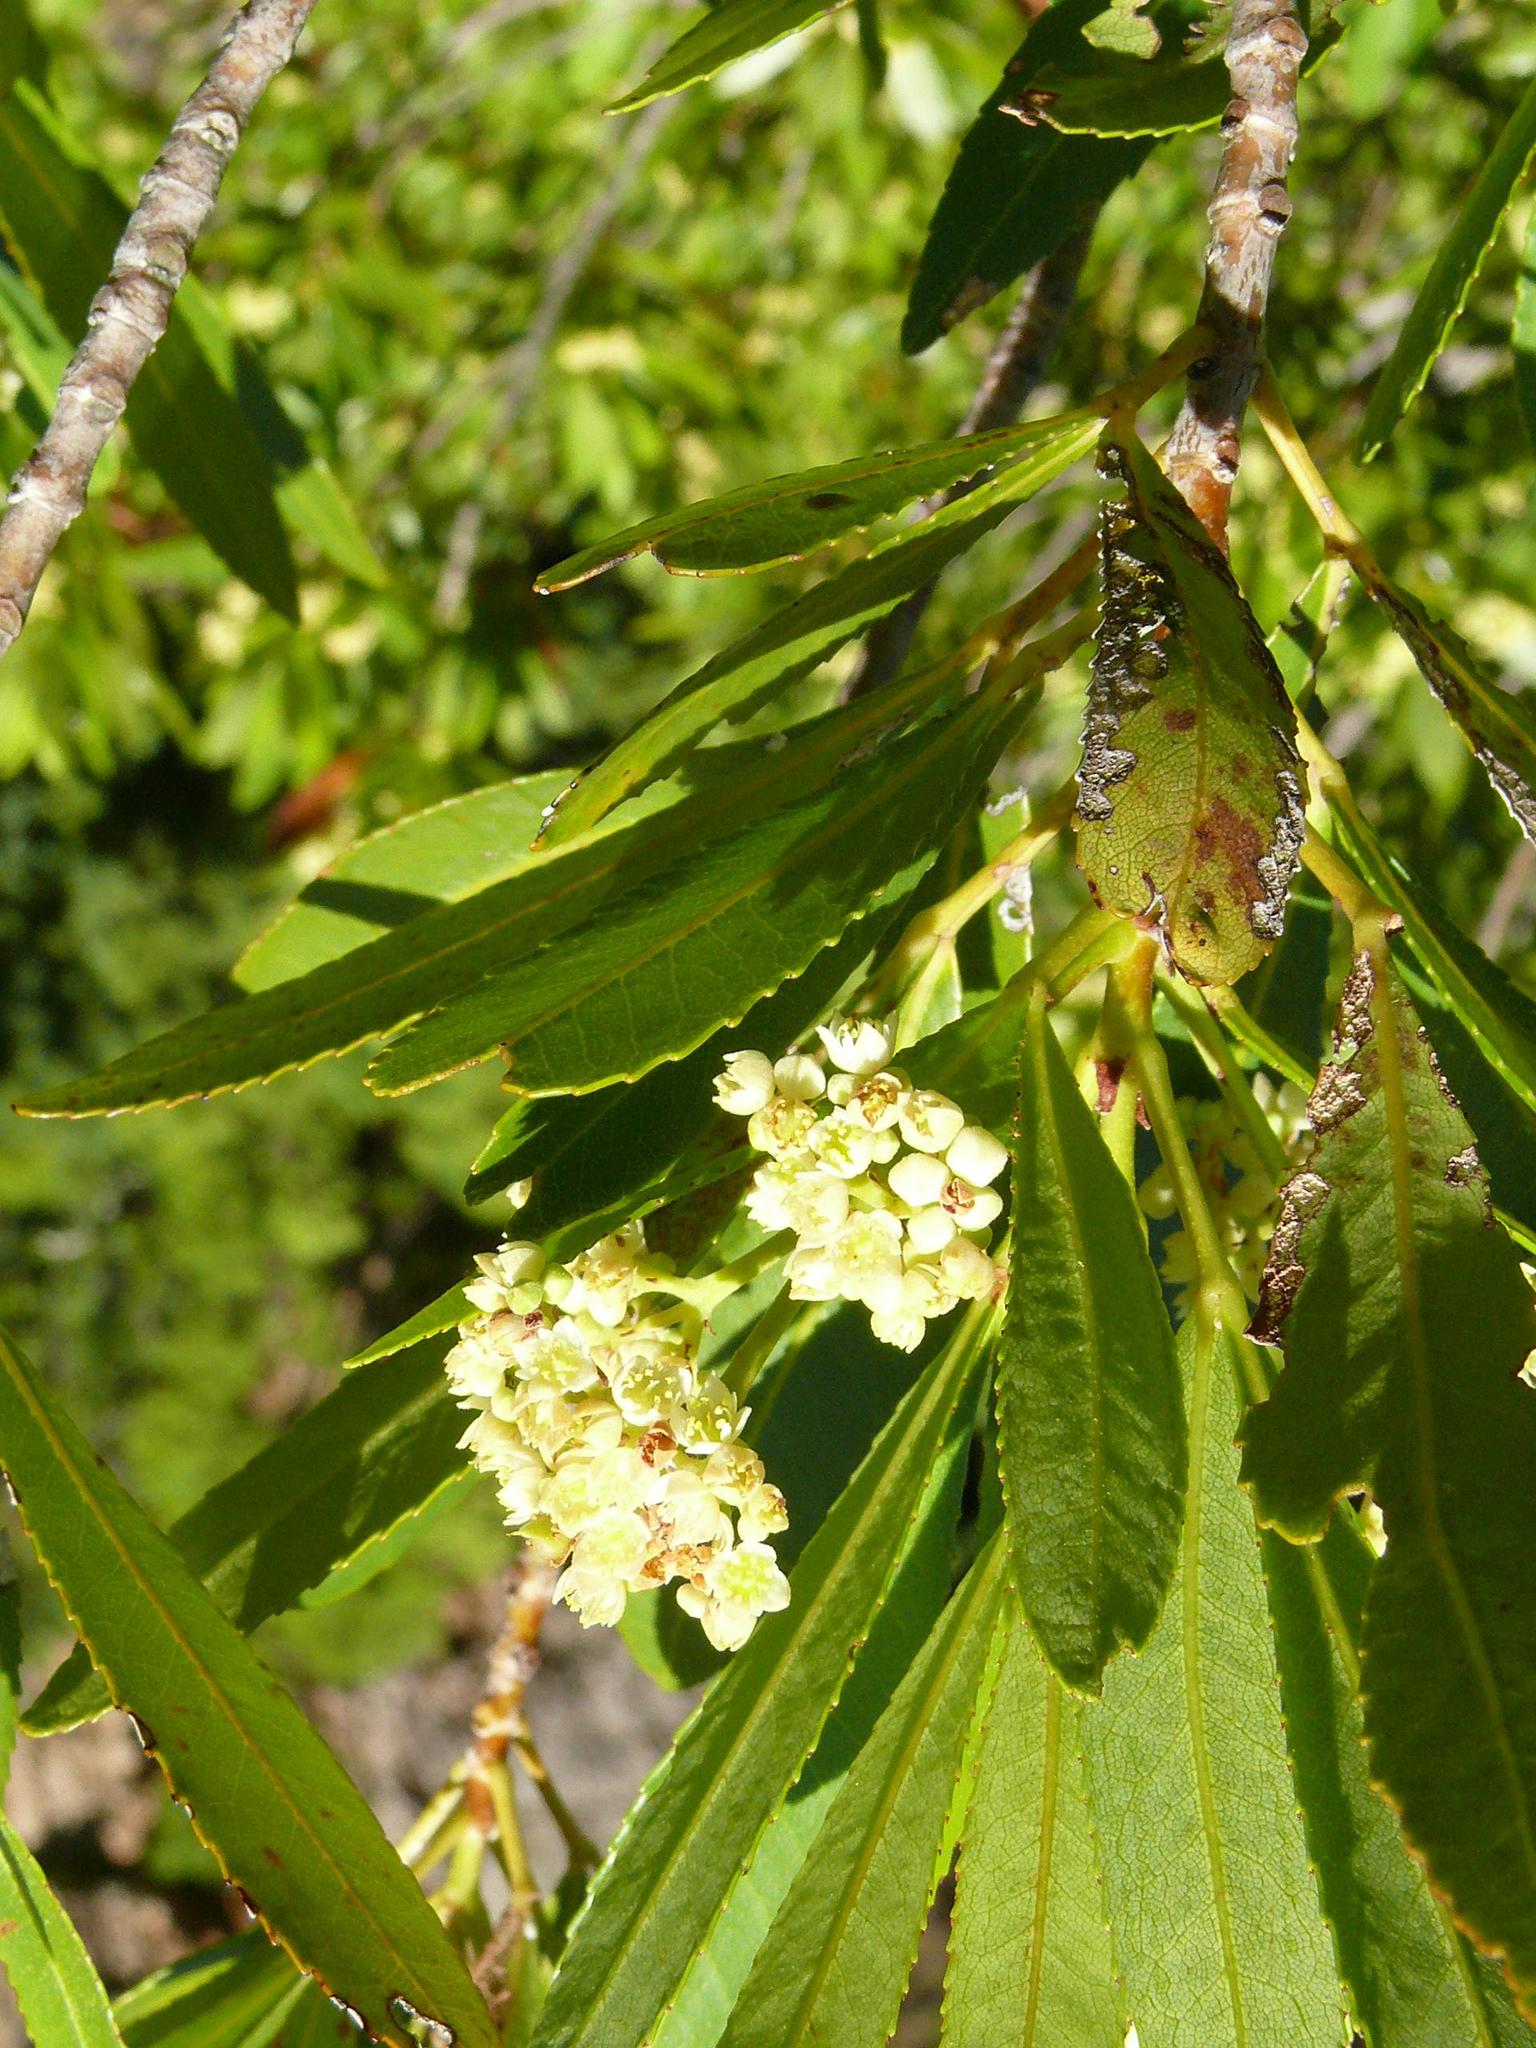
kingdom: Plantae
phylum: Tracheophyta
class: Magnoliopsida
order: Asterales
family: Asteraceae
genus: Brachylaena
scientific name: Brachylaena neriifolia
